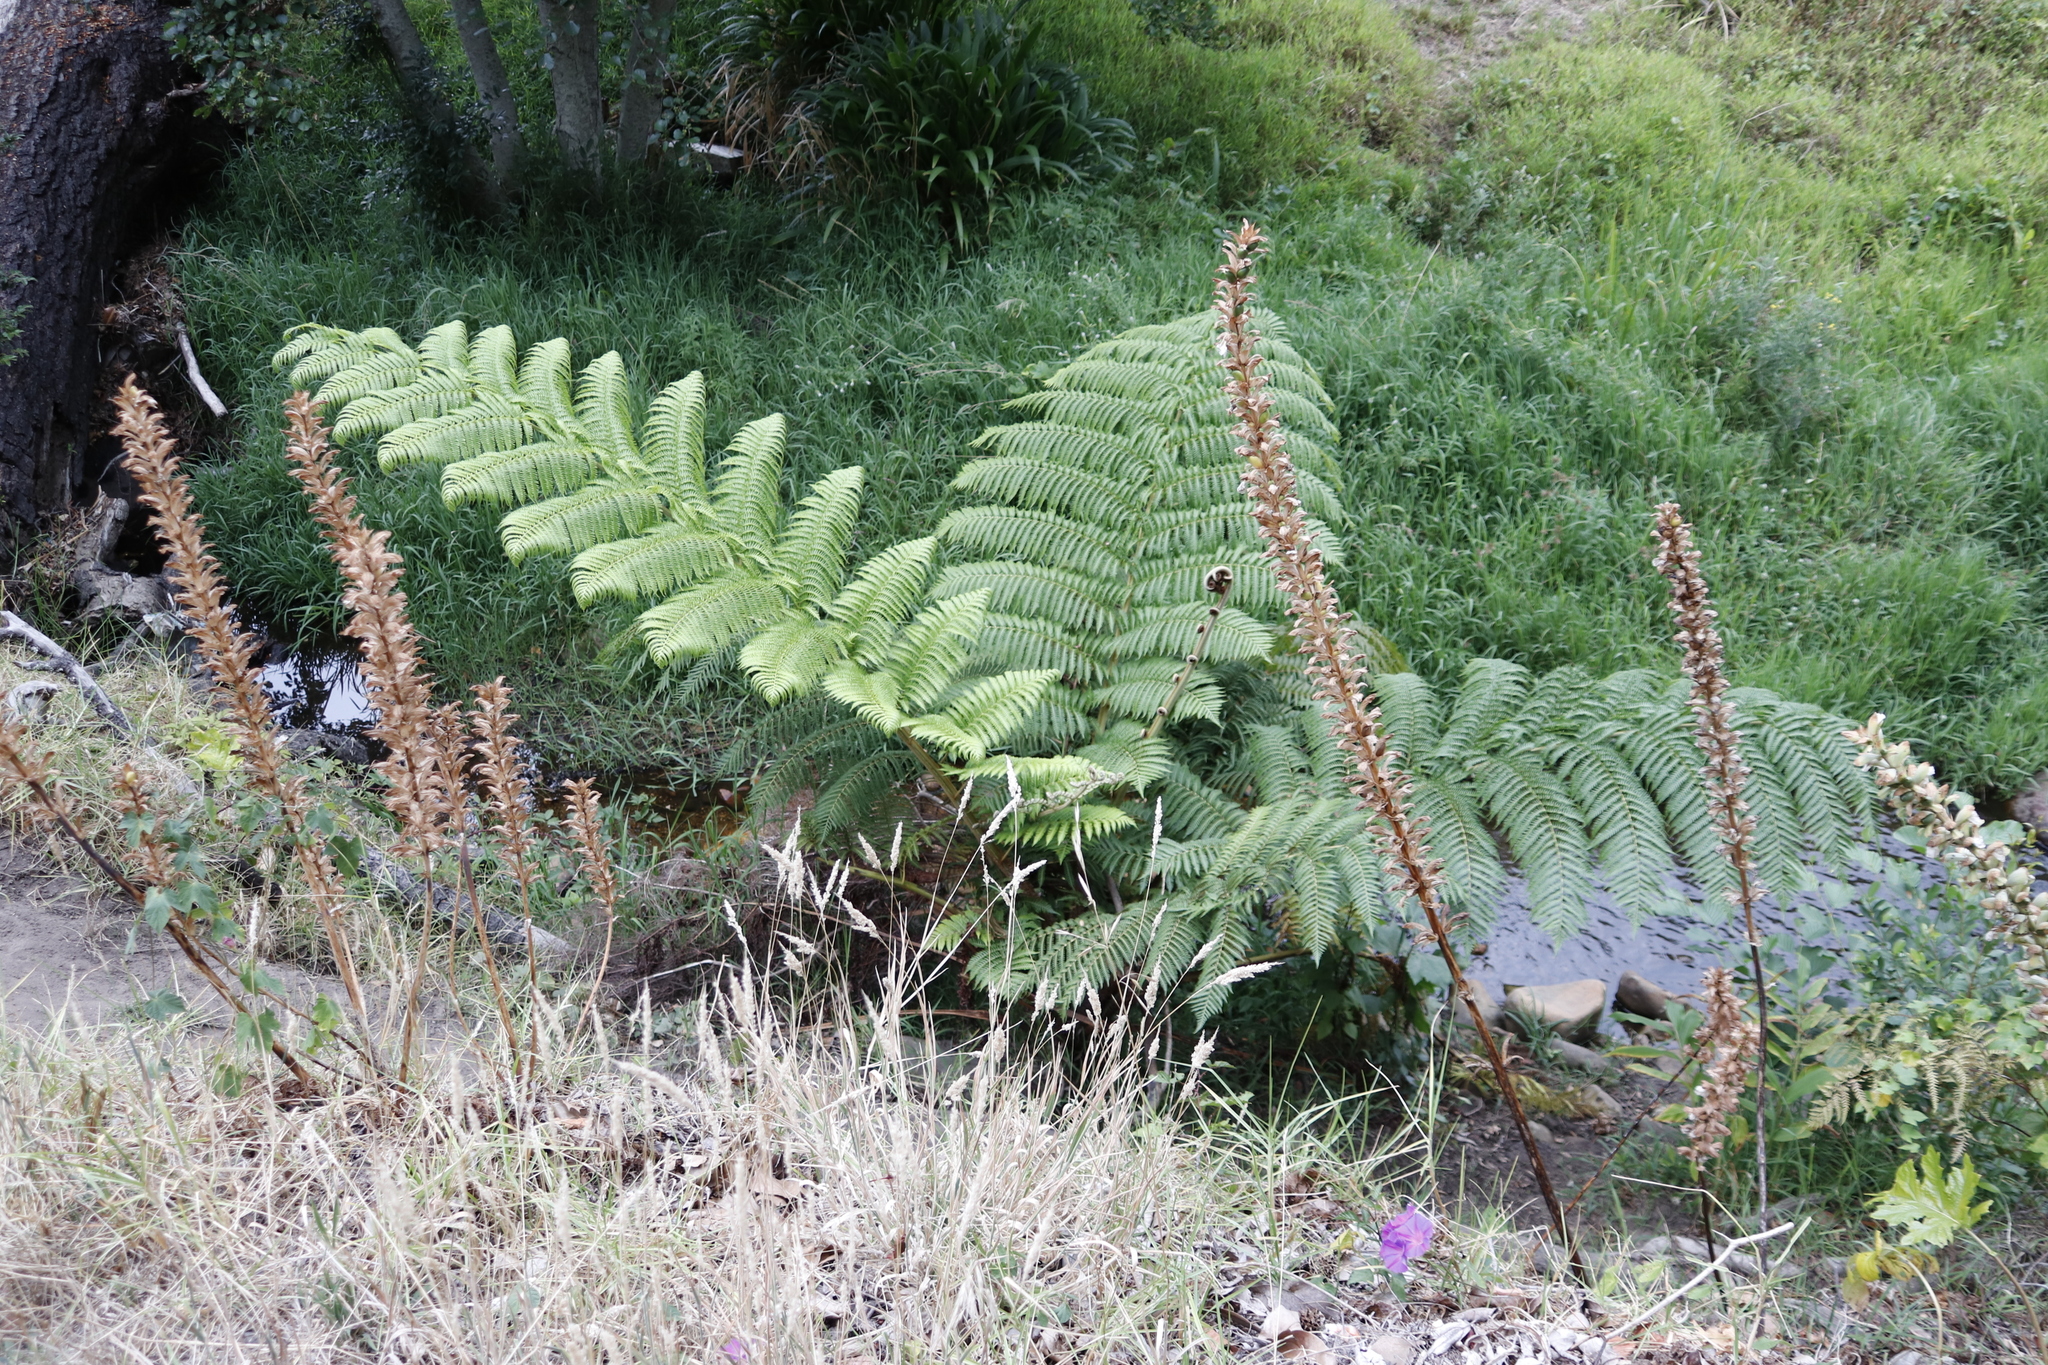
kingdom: Plantae
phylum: Tracheophyta
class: Polypodiopsida
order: Cyatheales
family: Cyatheaceae
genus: Sphaeropteris
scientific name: Sphaeropteris cooperi
